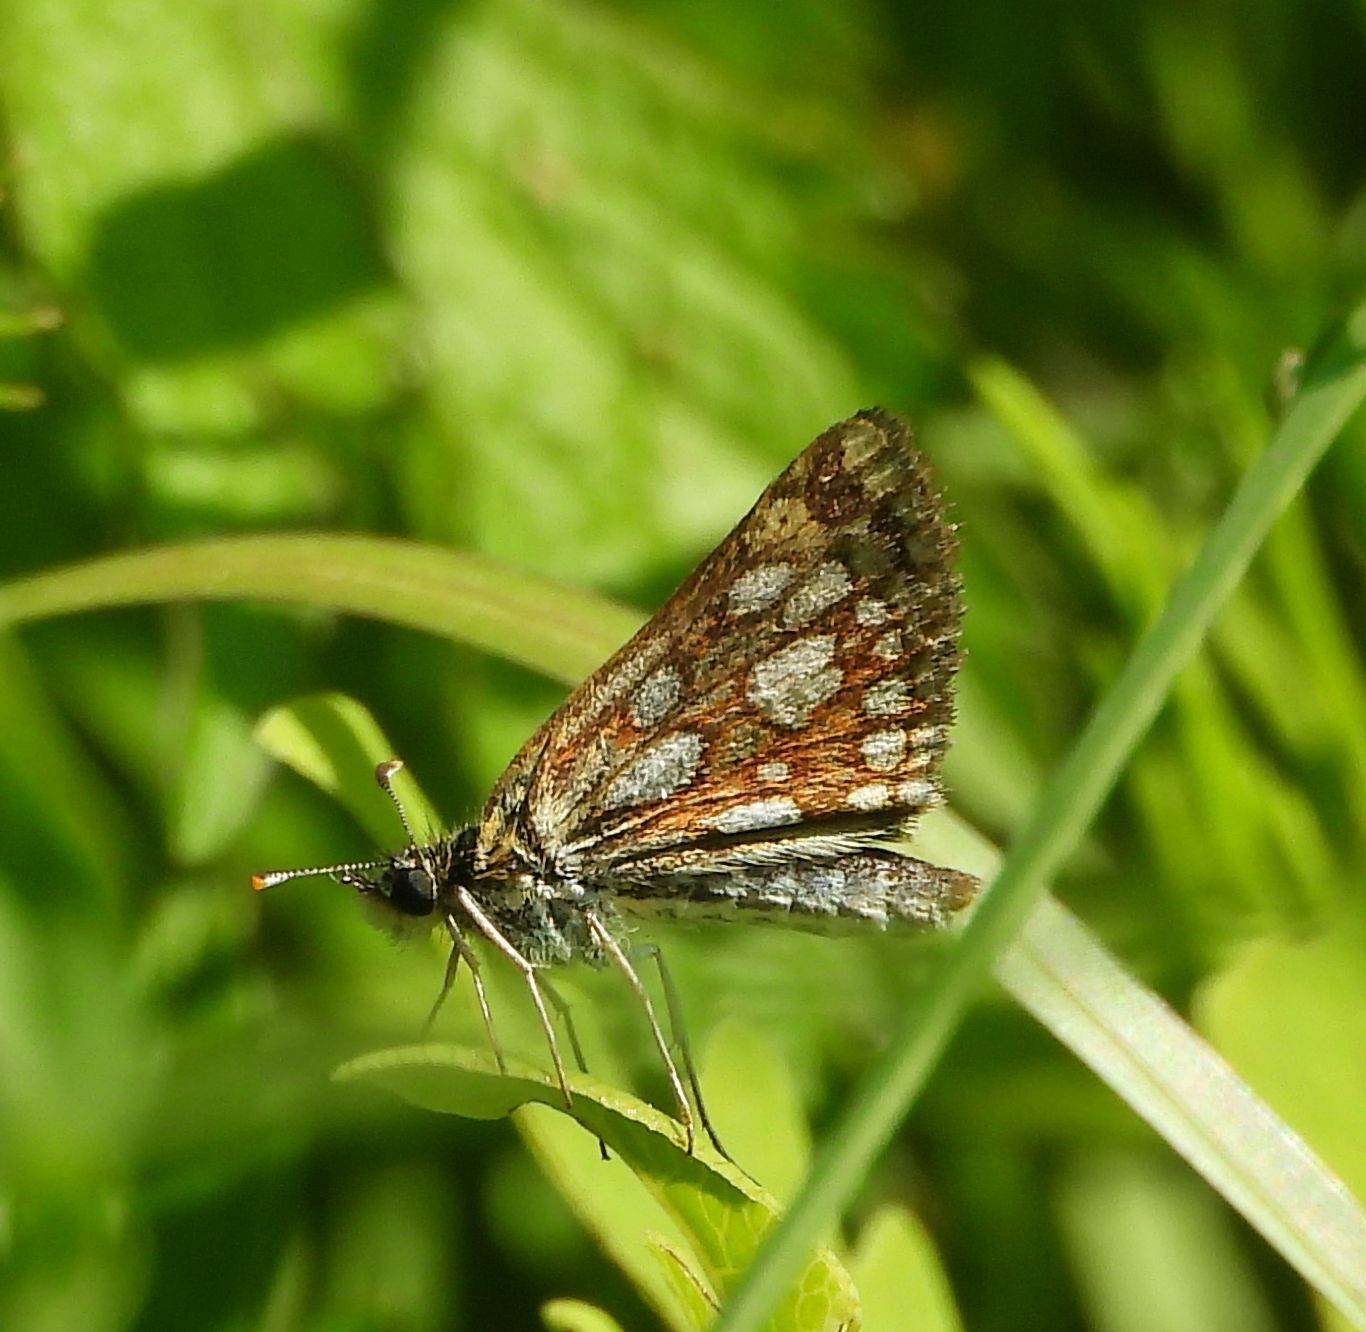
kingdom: Animalia
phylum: Arthropoda
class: Insecta
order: Lepidoptera
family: Hesperiidae
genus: Carterocephalus
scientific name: Carterocephalus mandan
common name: Arctic skipperling
